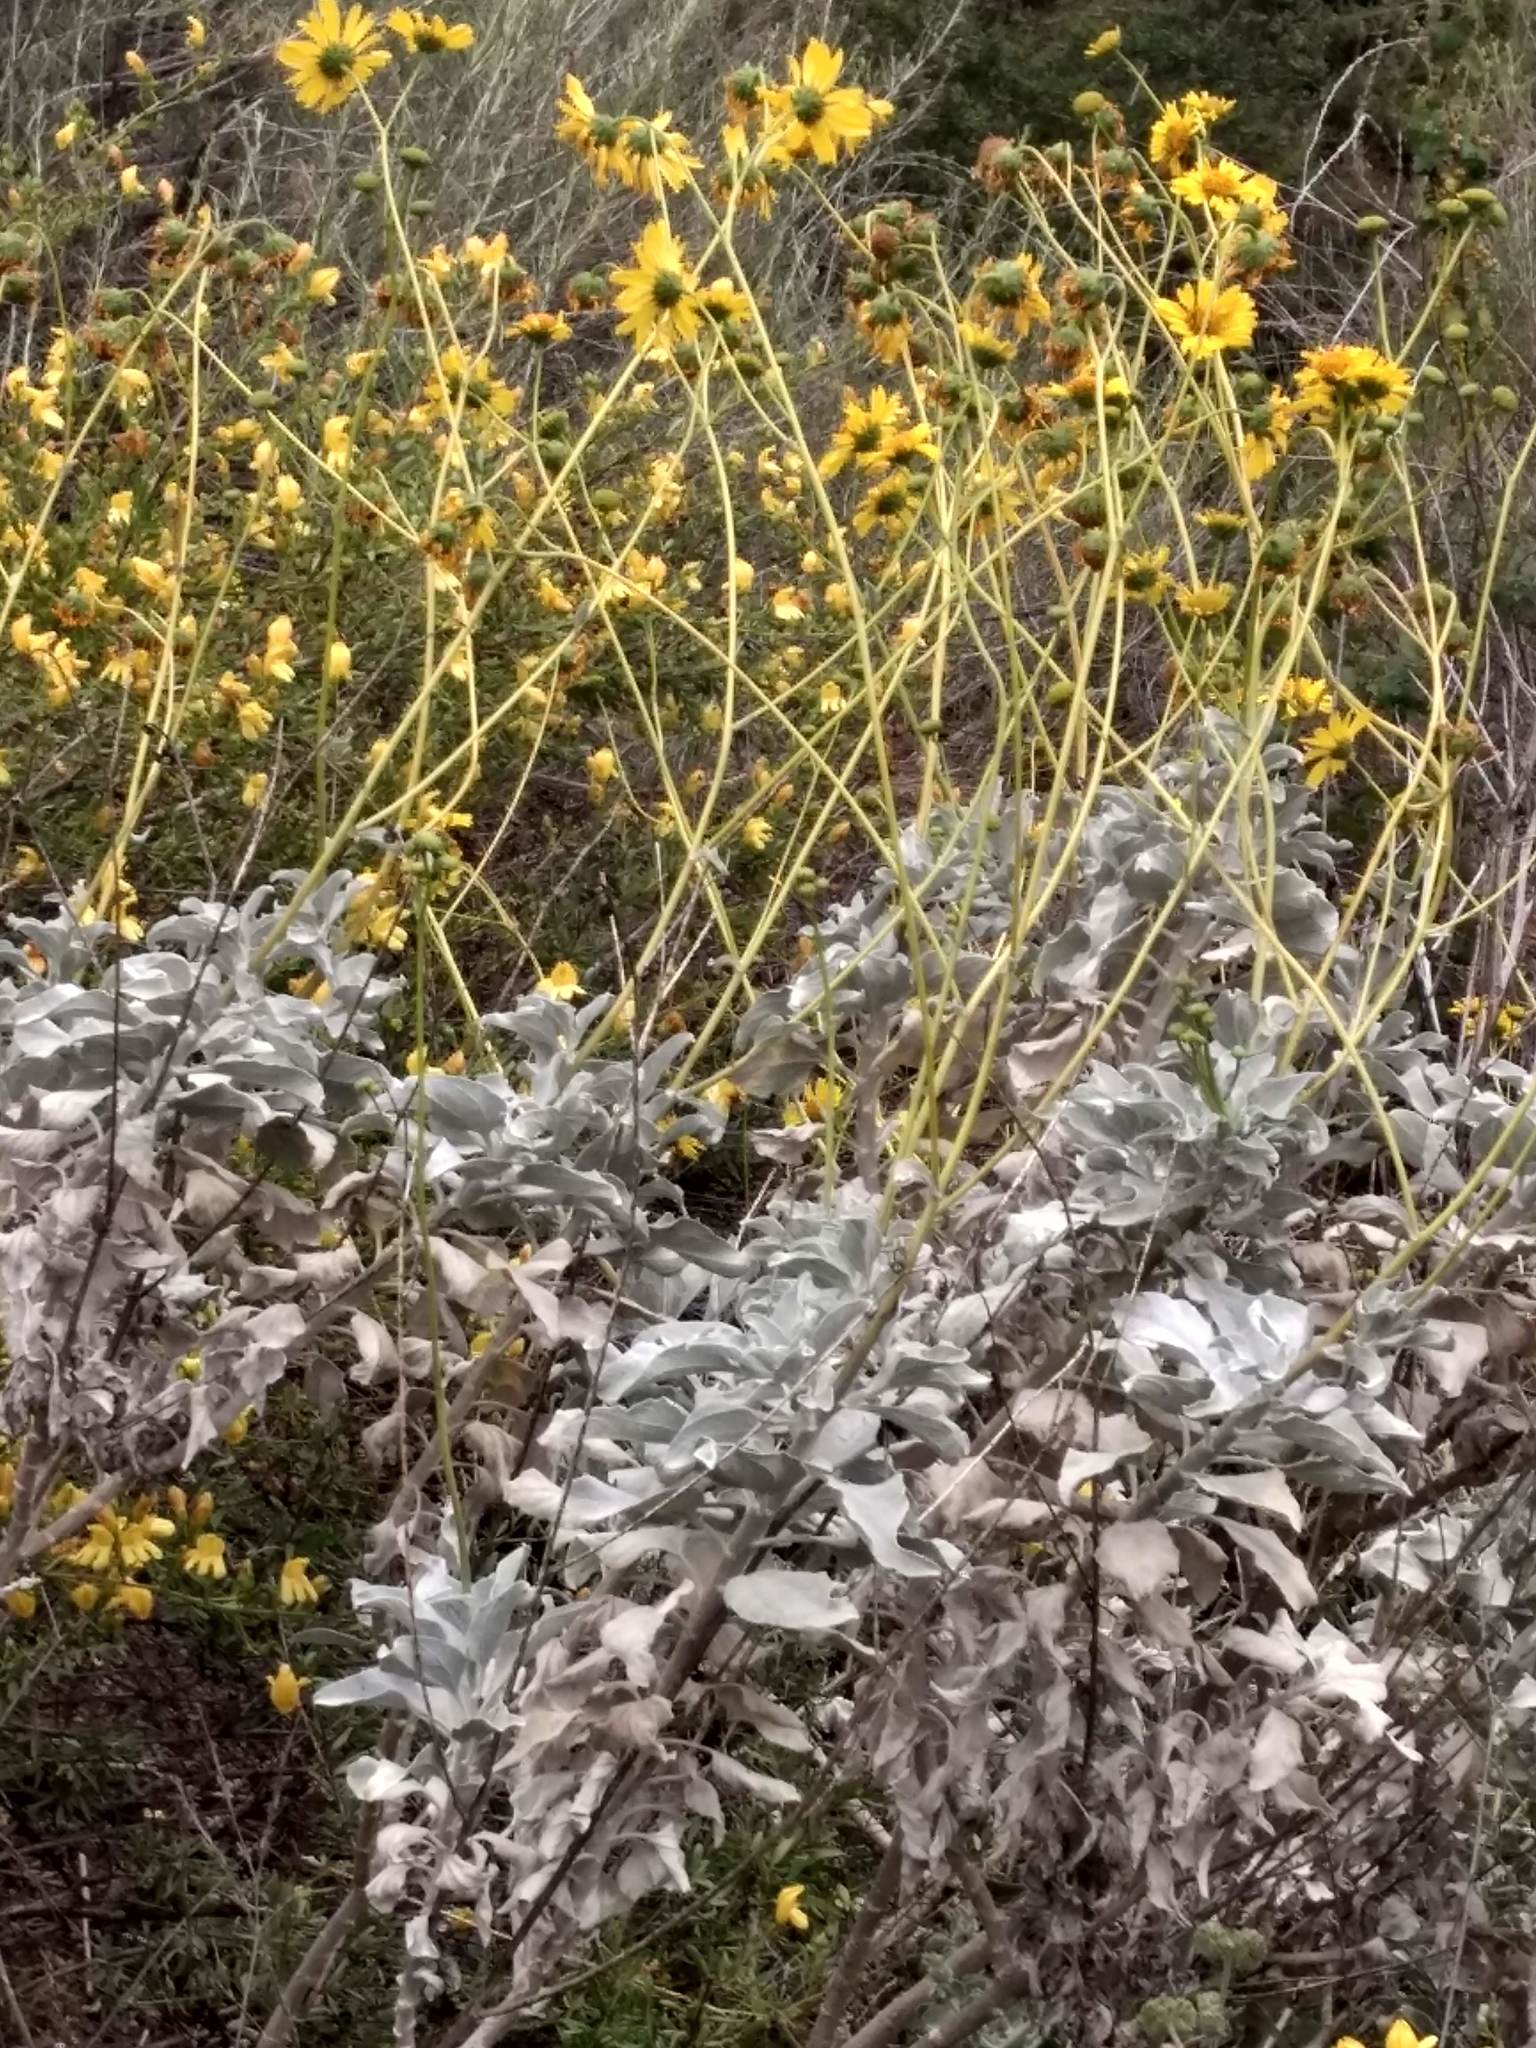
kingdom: Plantae
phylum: Tracheophyta
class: Magnoliopsida
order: Asterales
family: Asteraceae
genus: Encelia
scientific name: Encelia farinosa
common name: Brittlebush
